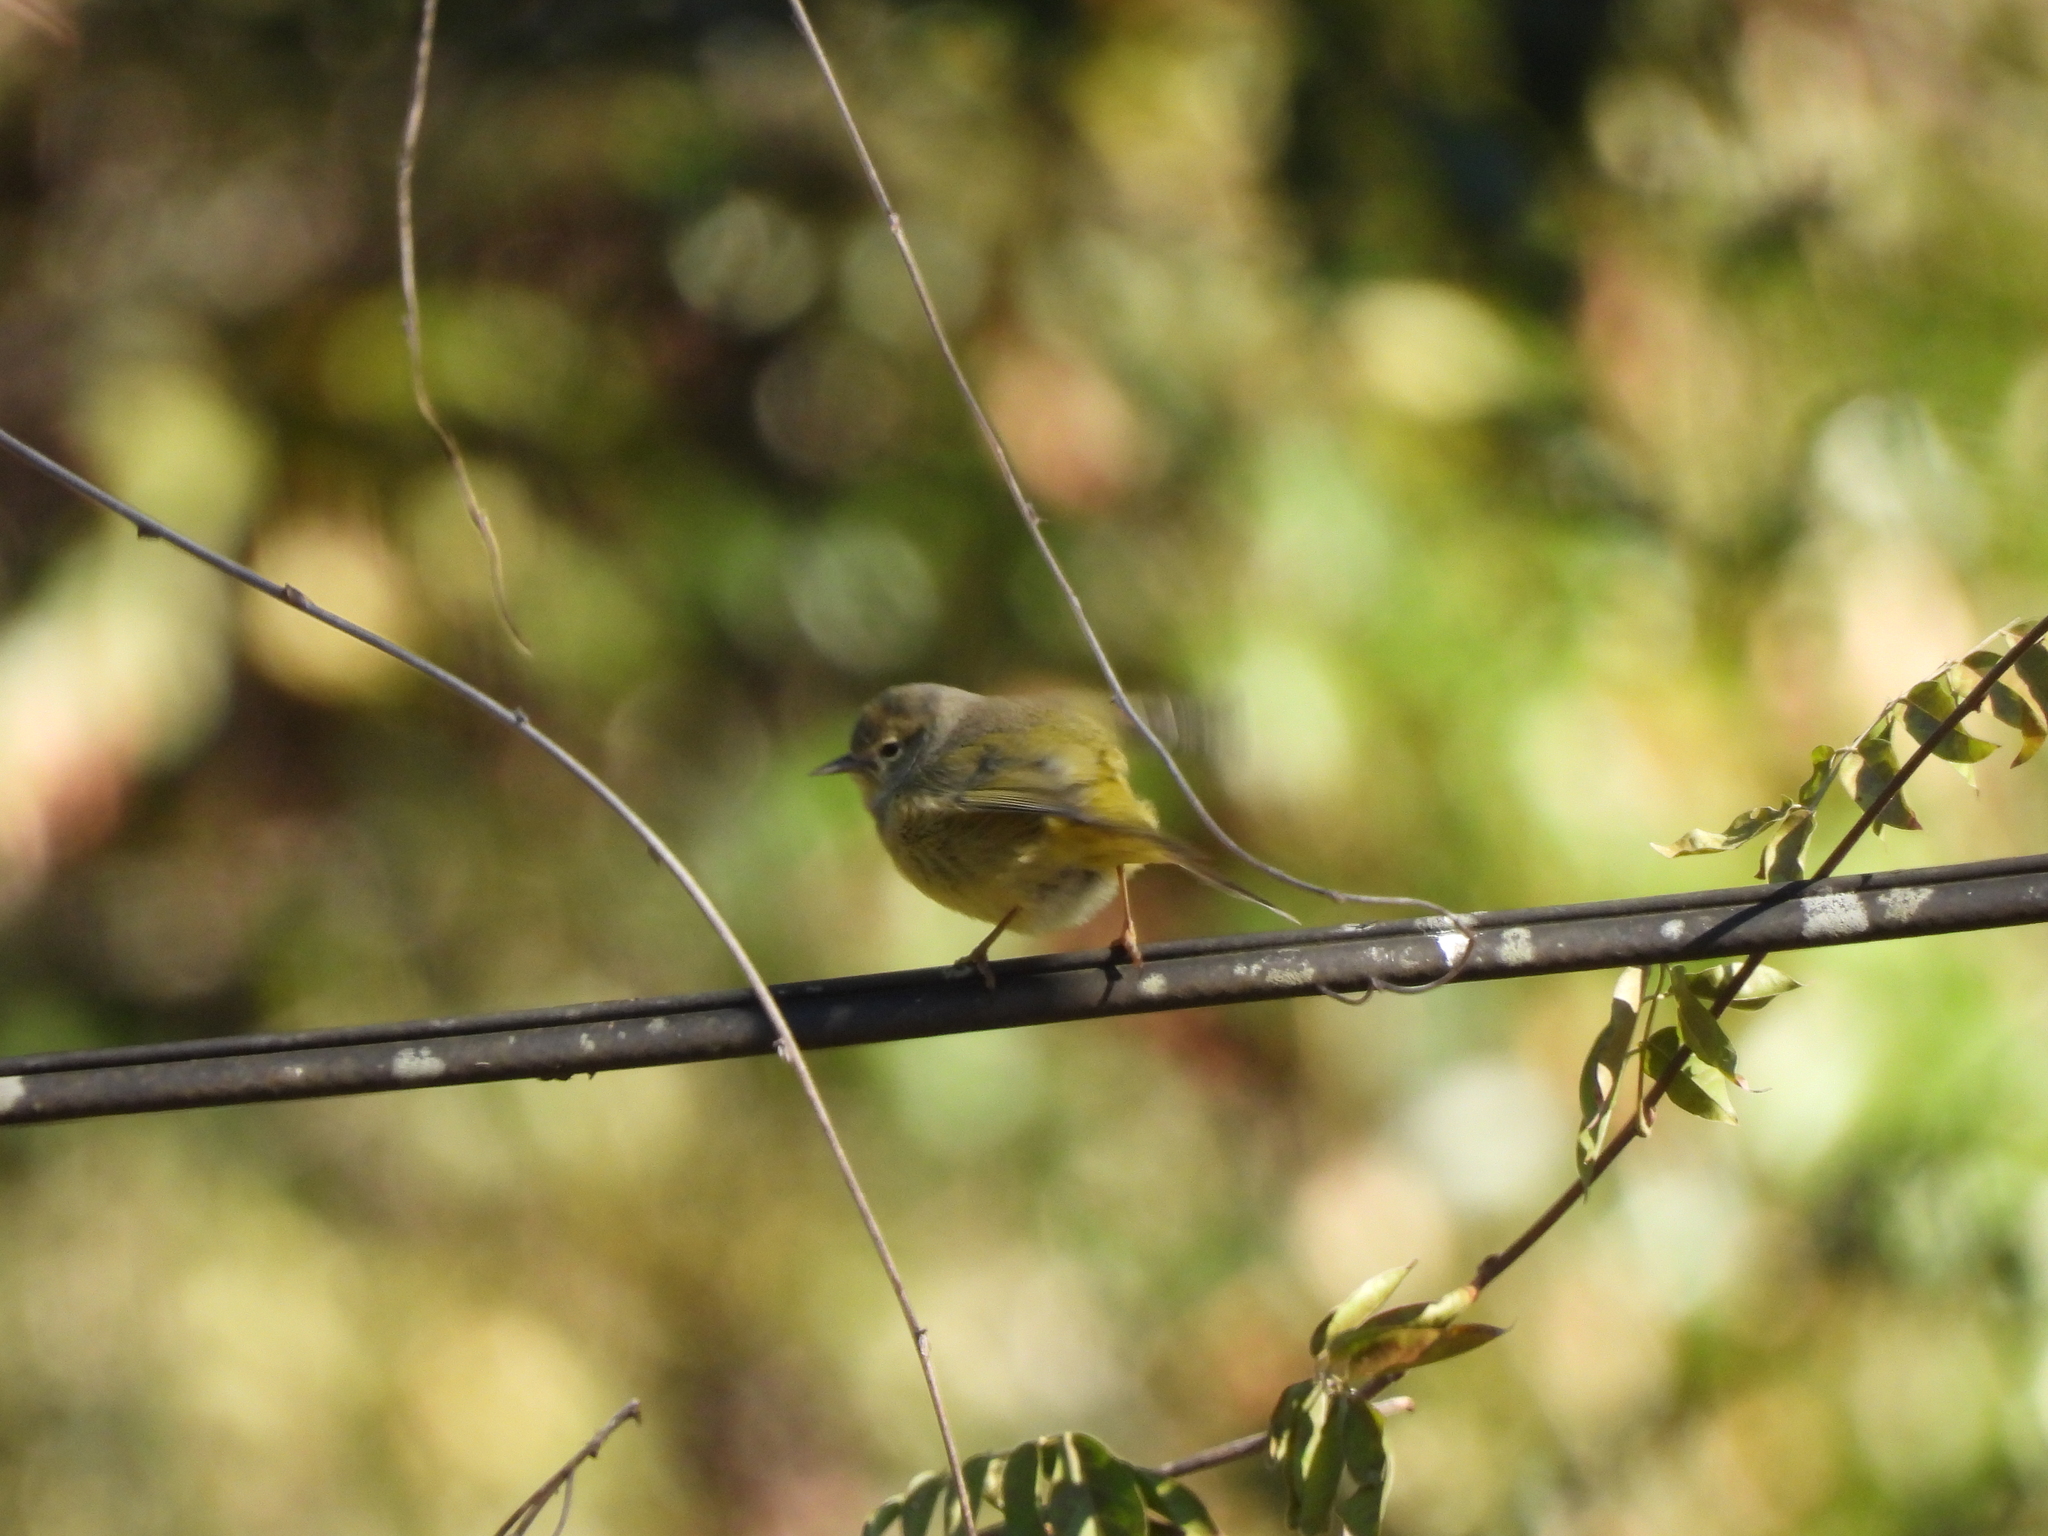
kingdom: Animalia
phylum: Chordata
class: Aves
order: Passeriformes
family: Parulidae
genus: Leiothlypis
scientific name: Leiothlypis celata
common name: Orange-crowned warbler
